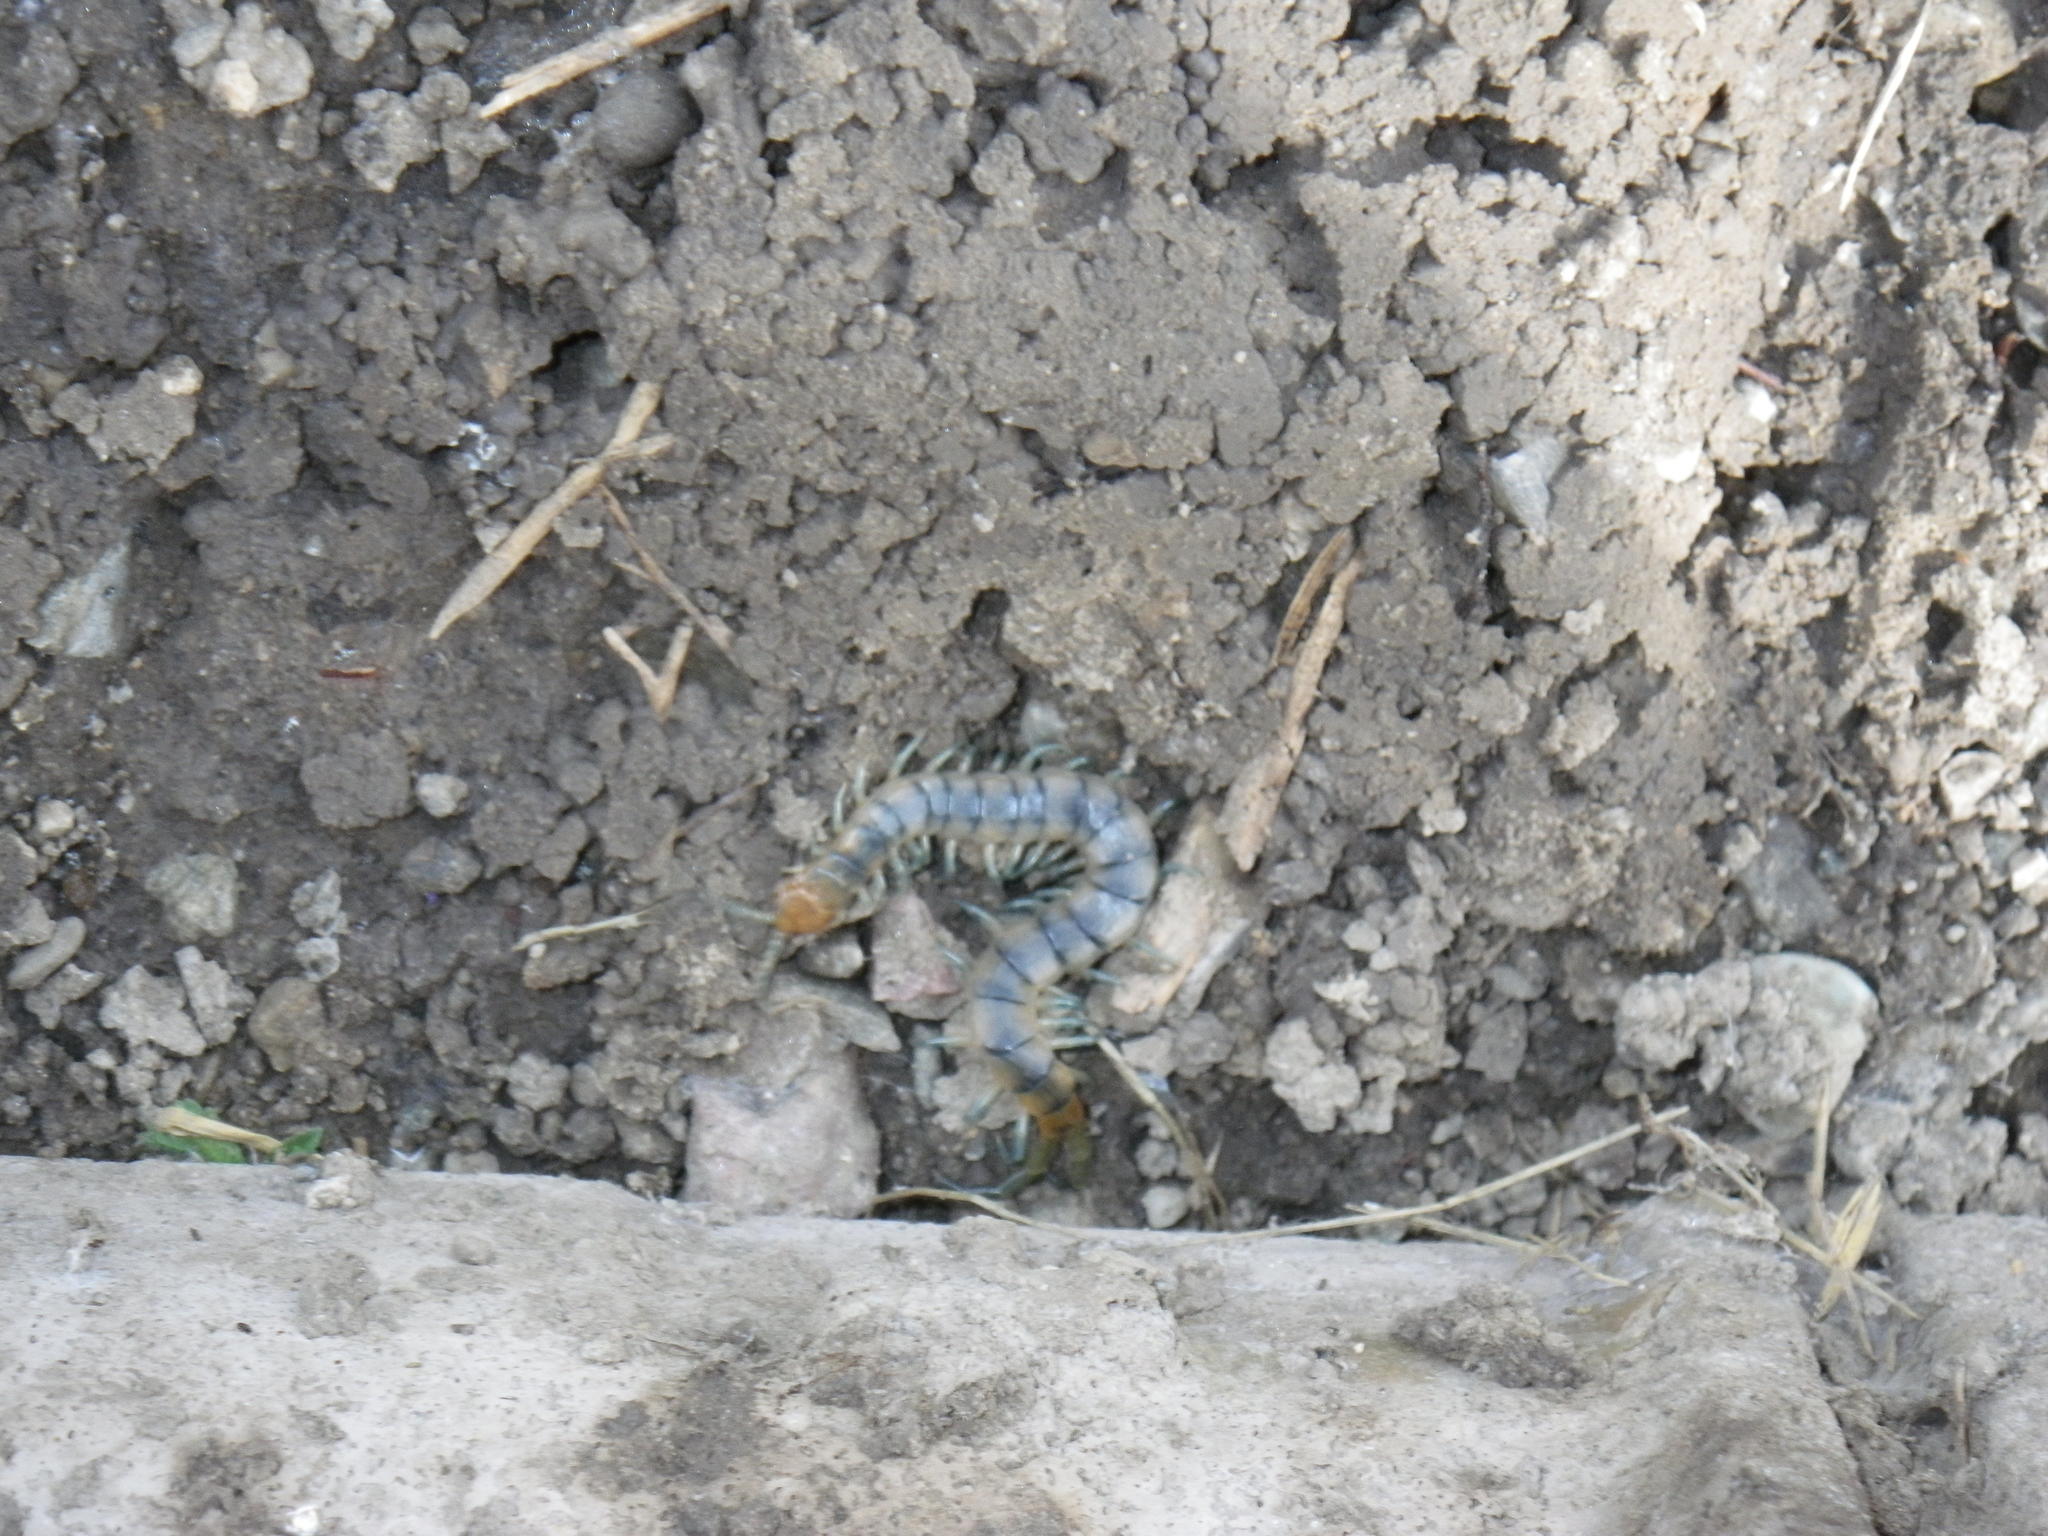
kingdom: Animalia
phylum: Arthropoda
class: Chilopoda
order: Scolopendromorpha
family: Scolopendridae
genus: Scolopendra
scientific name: Scolopendra polymorpha
